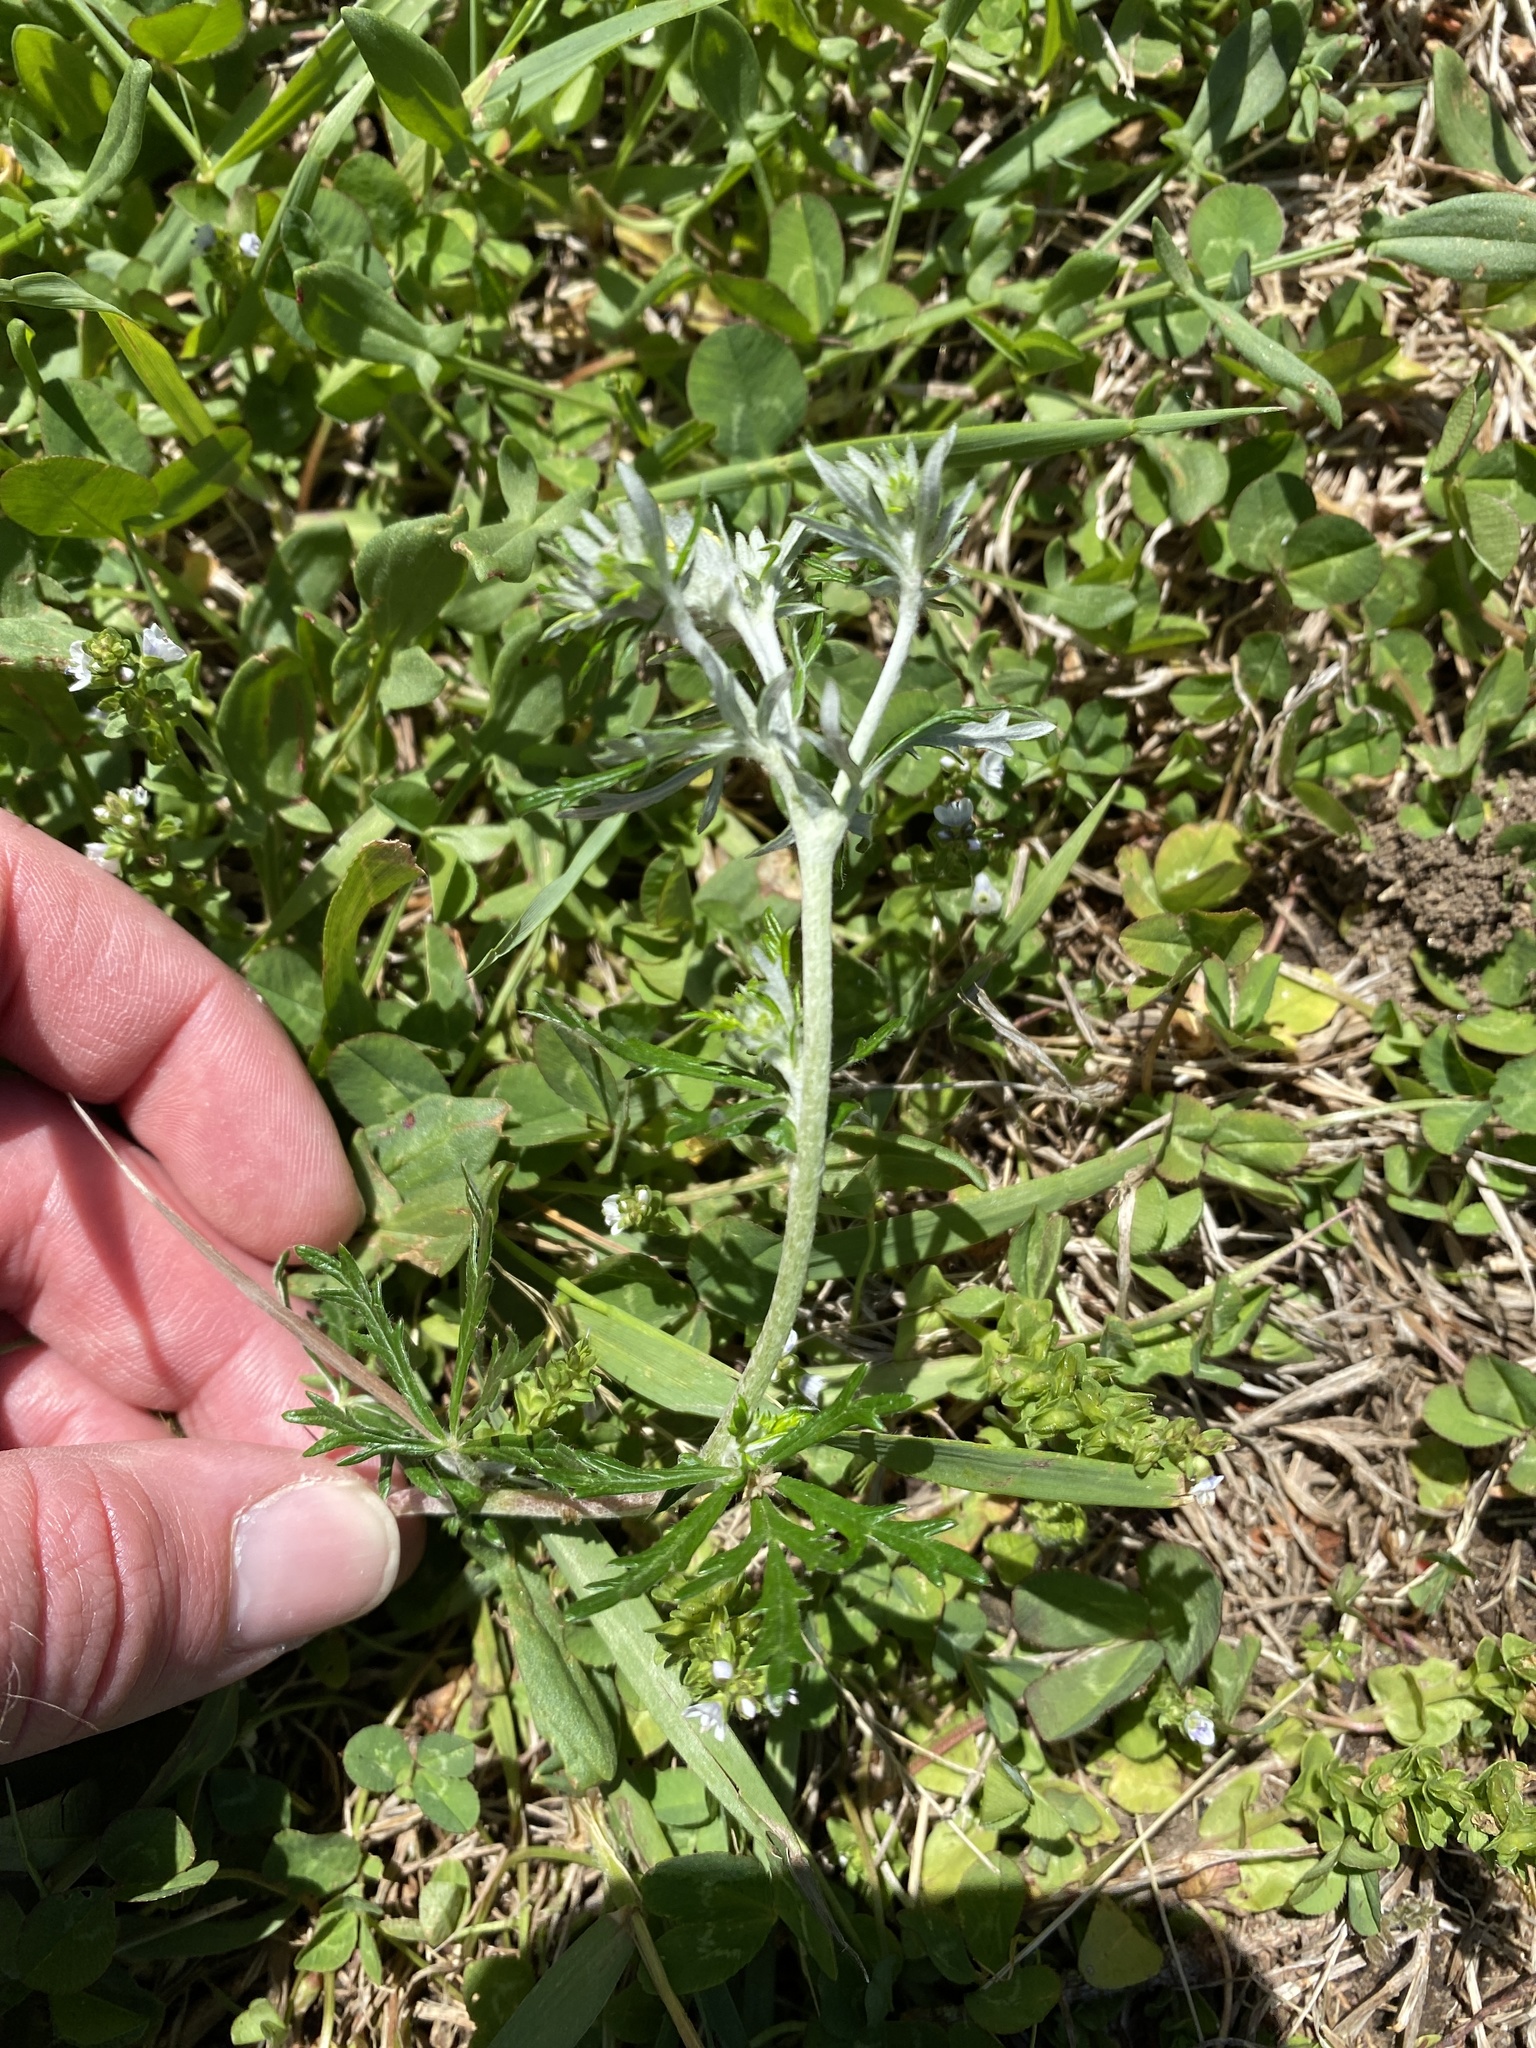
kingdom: Plantae
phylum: Tracheophyta
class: Magnoliopsida
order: Rosales
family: Rosaceae
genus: Potentilla
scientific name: Potentilla argentea
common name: Hoary cinquefoil
